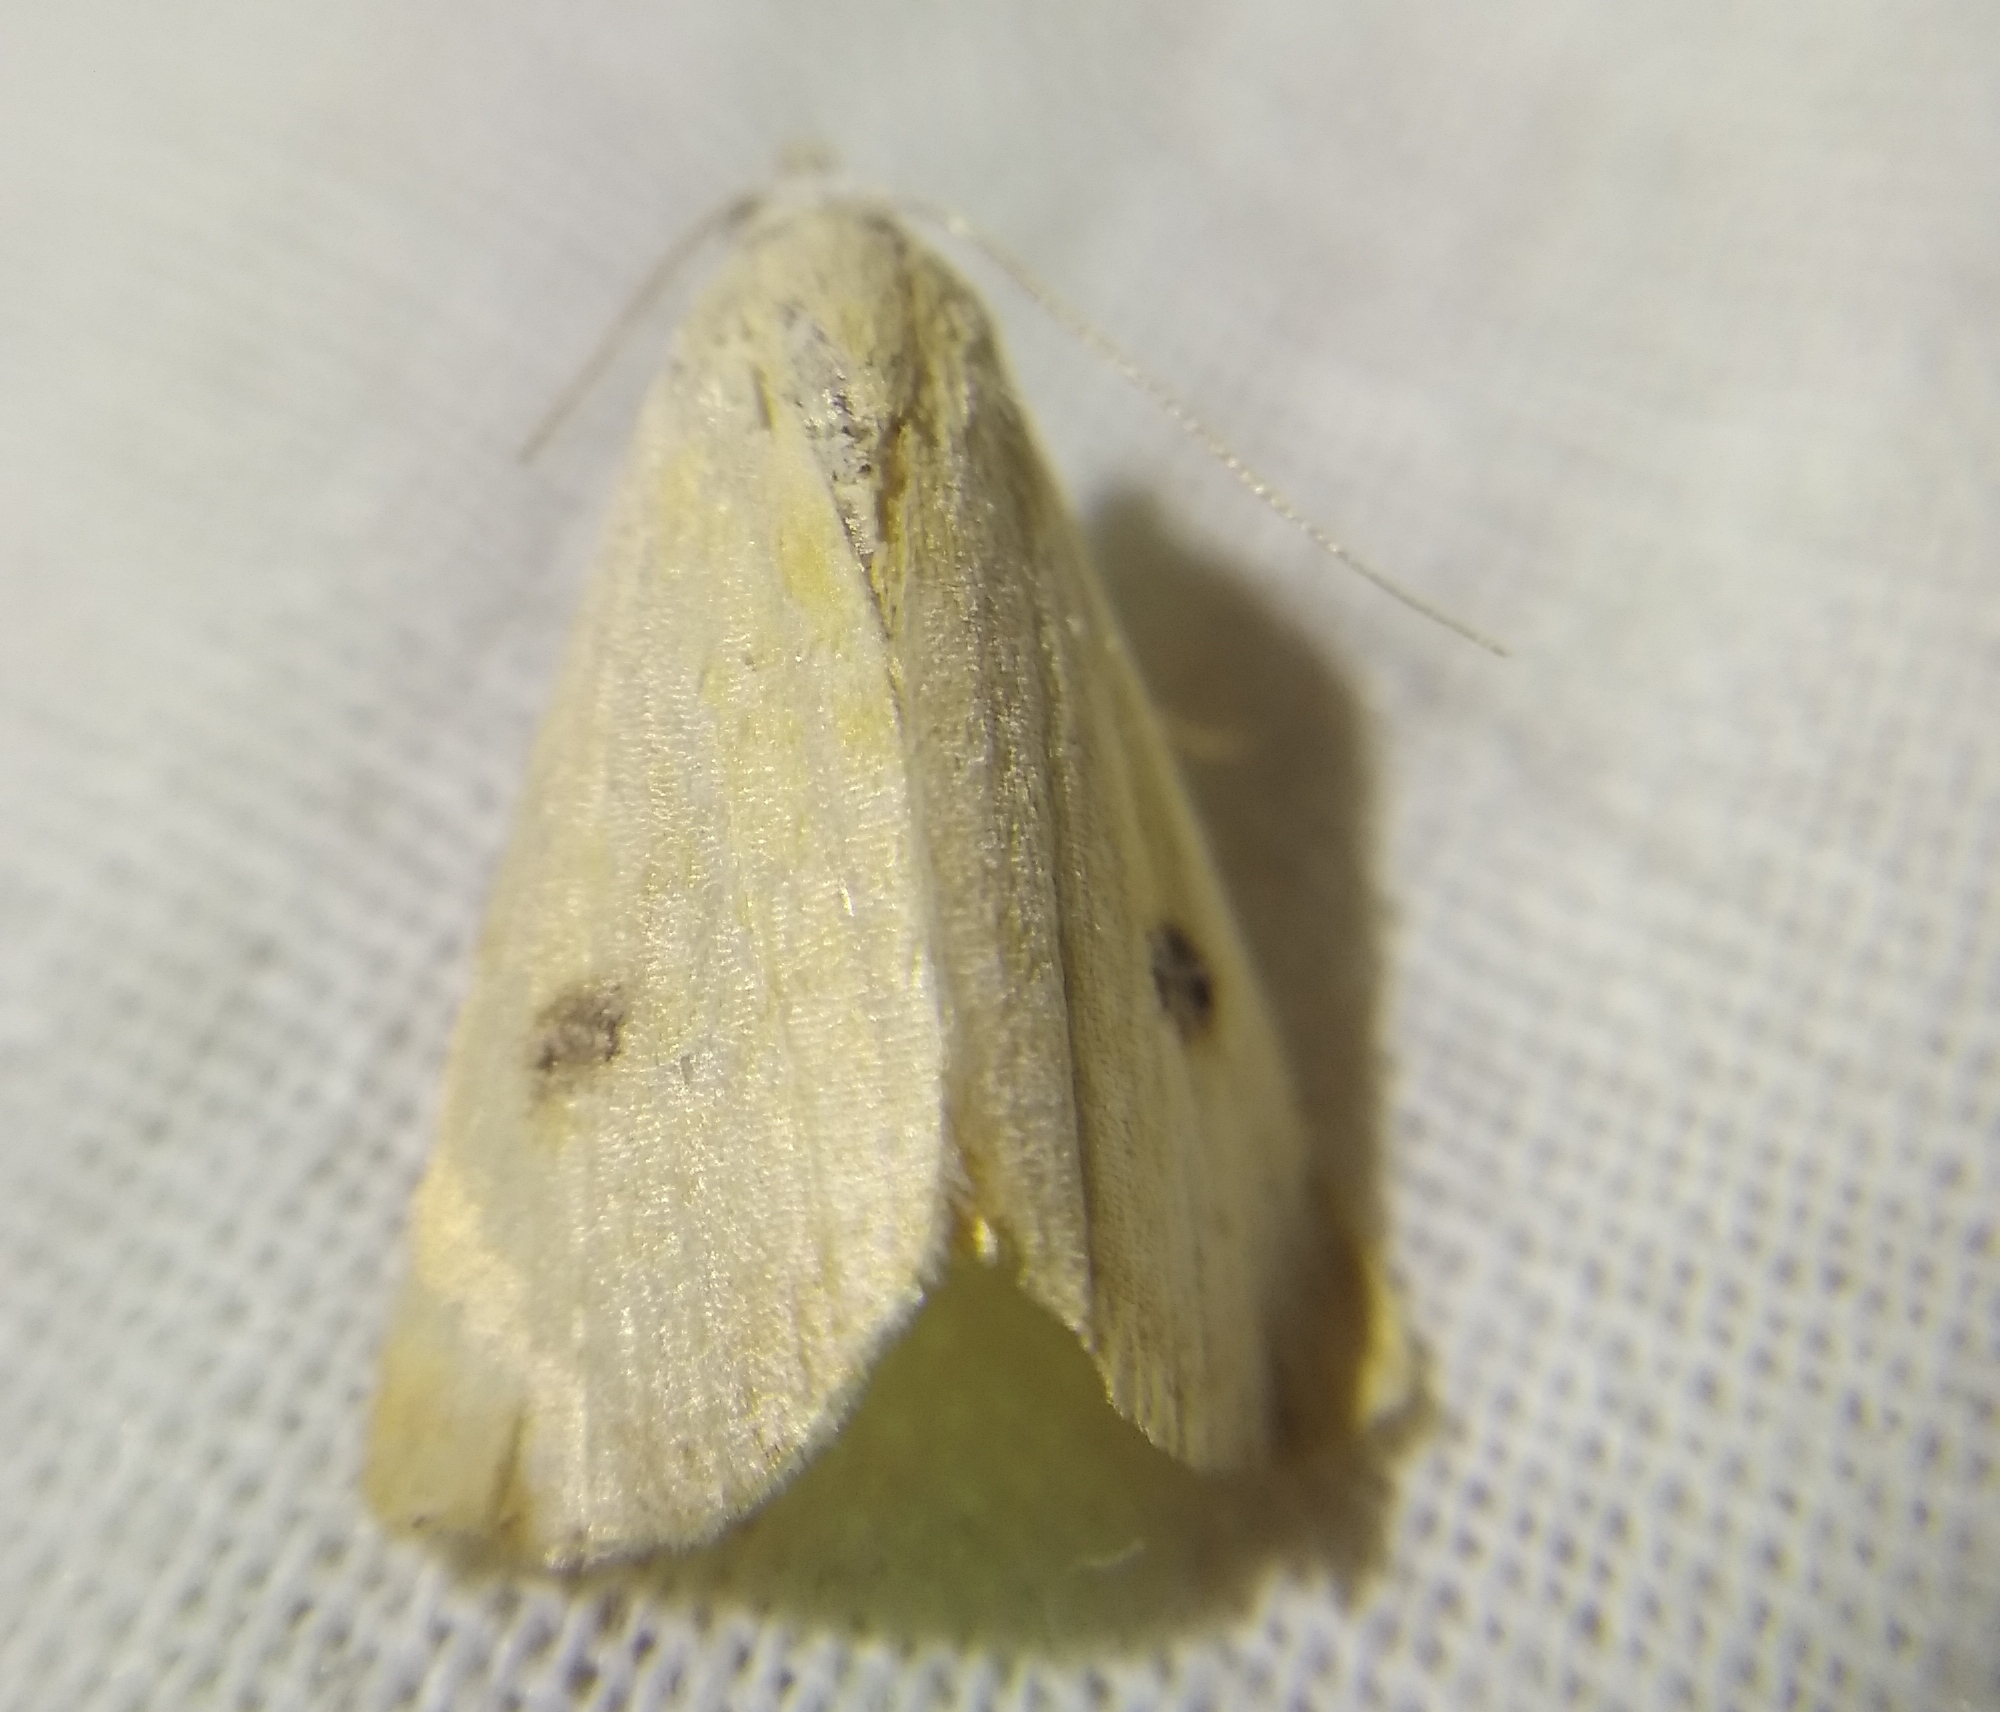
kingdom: Animalia
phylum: Arthropoda
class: Insecta
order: Lepidoptera
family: Erebidae
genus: Rivula
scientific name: Rivula sericealis
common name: Straw dot
